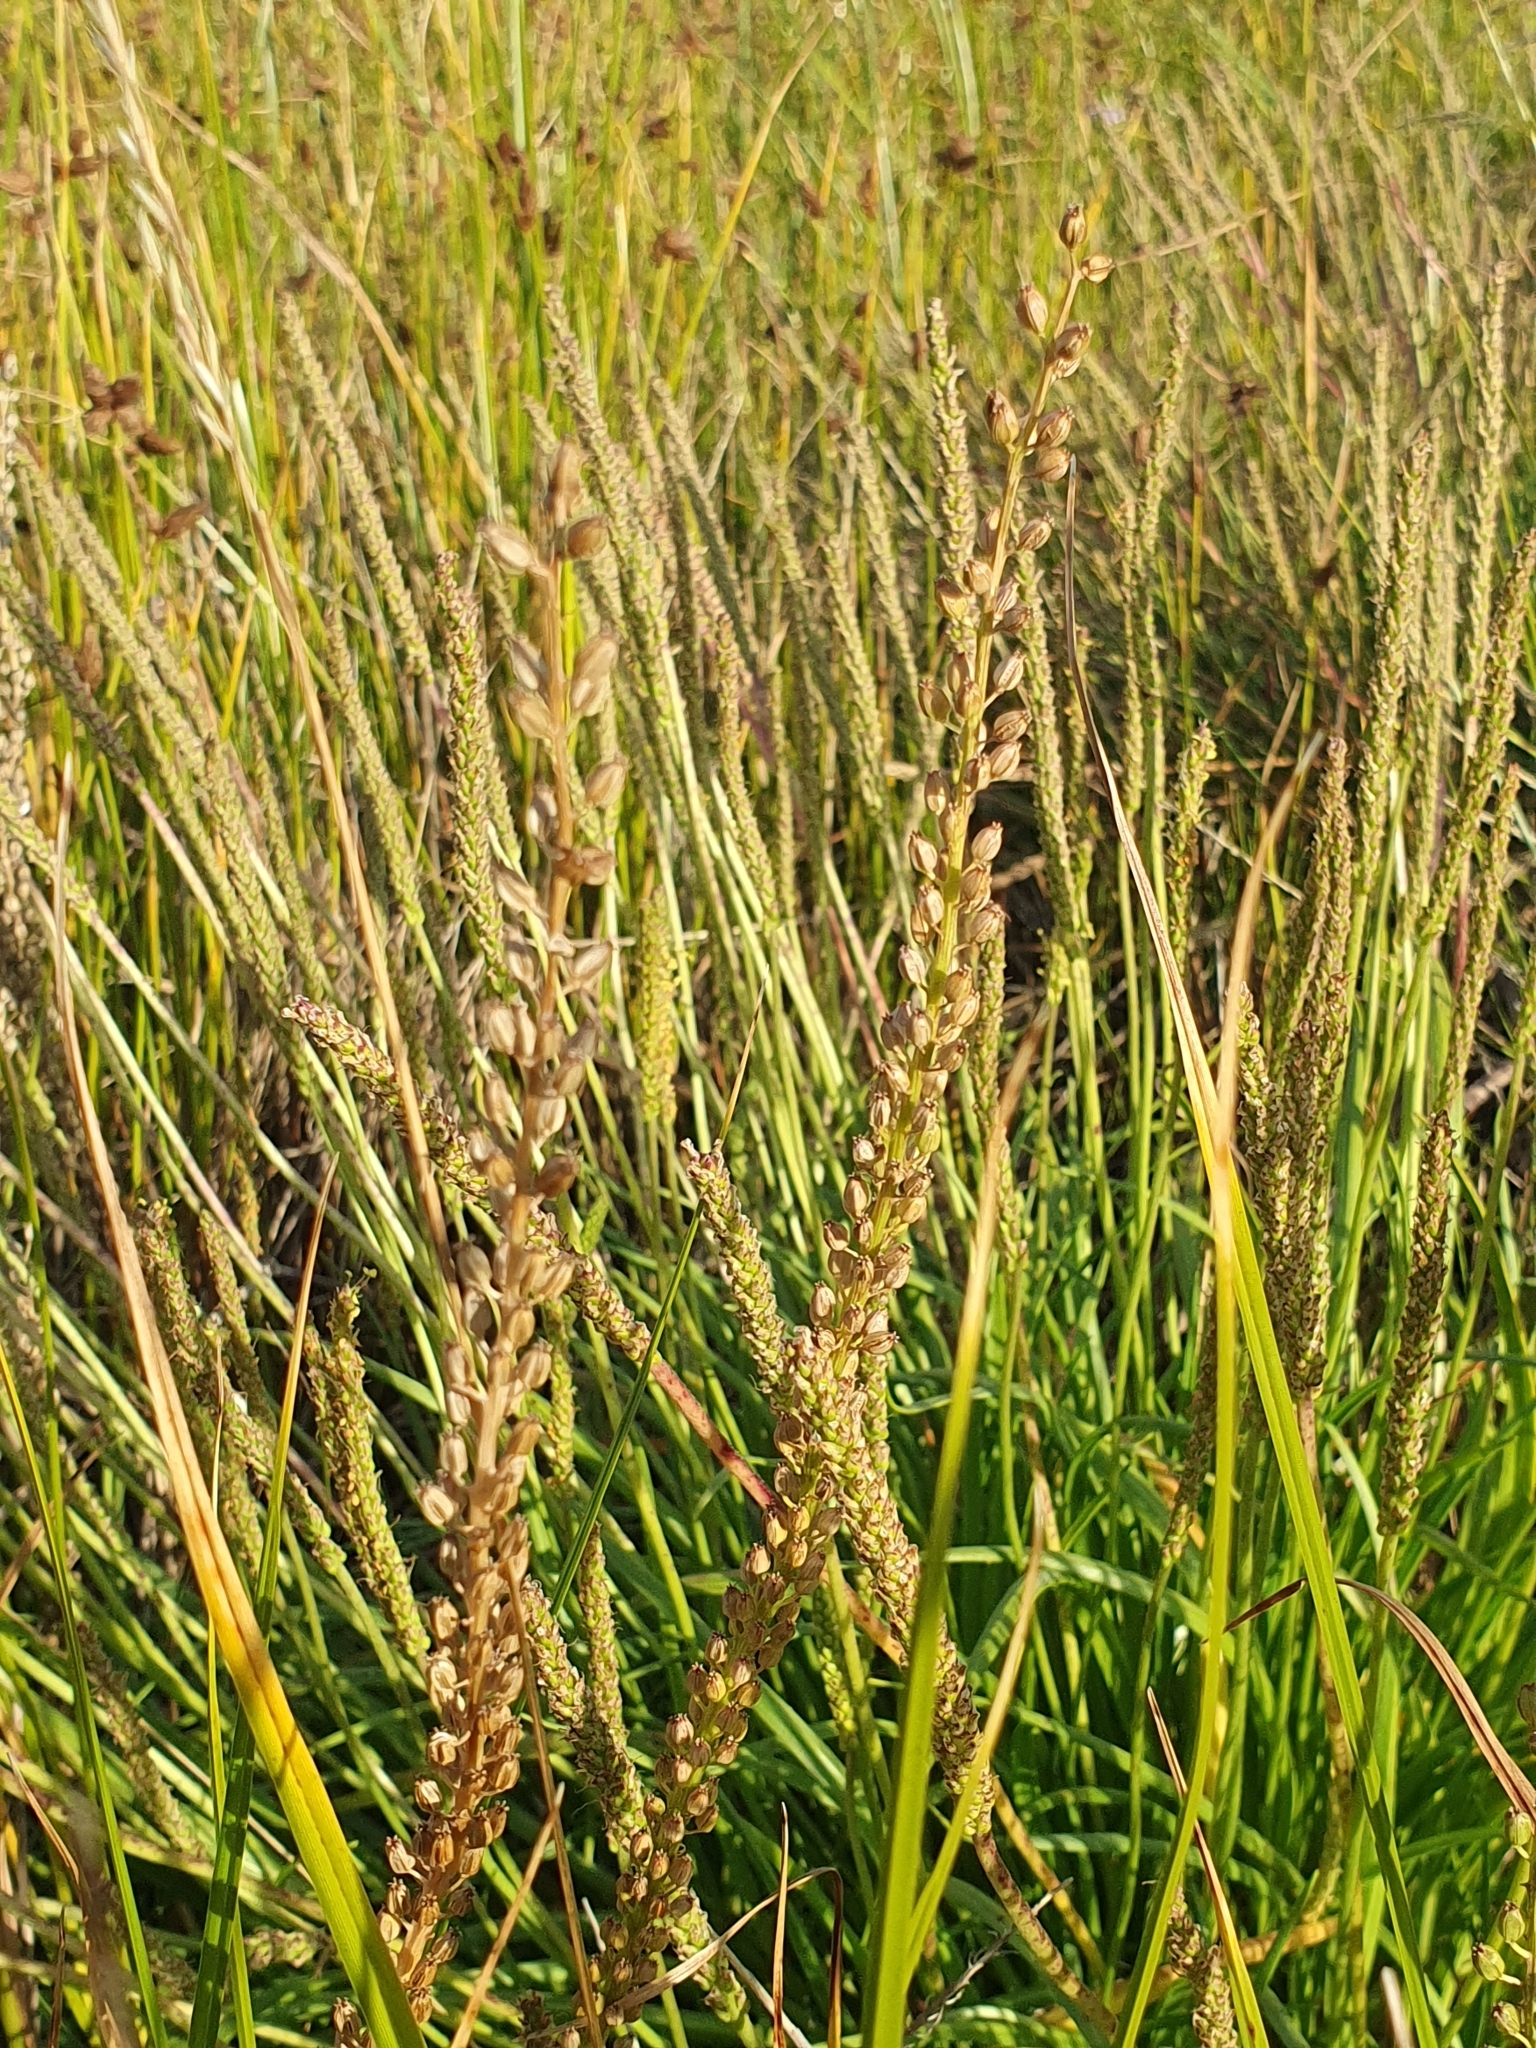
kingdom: Plantae
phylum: Tracheophyta
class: Liliopsida
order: Alismatales
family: Juncaginaceae
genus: Triglochin
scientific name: Triglochin maritima
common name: Sea arrowgrass
